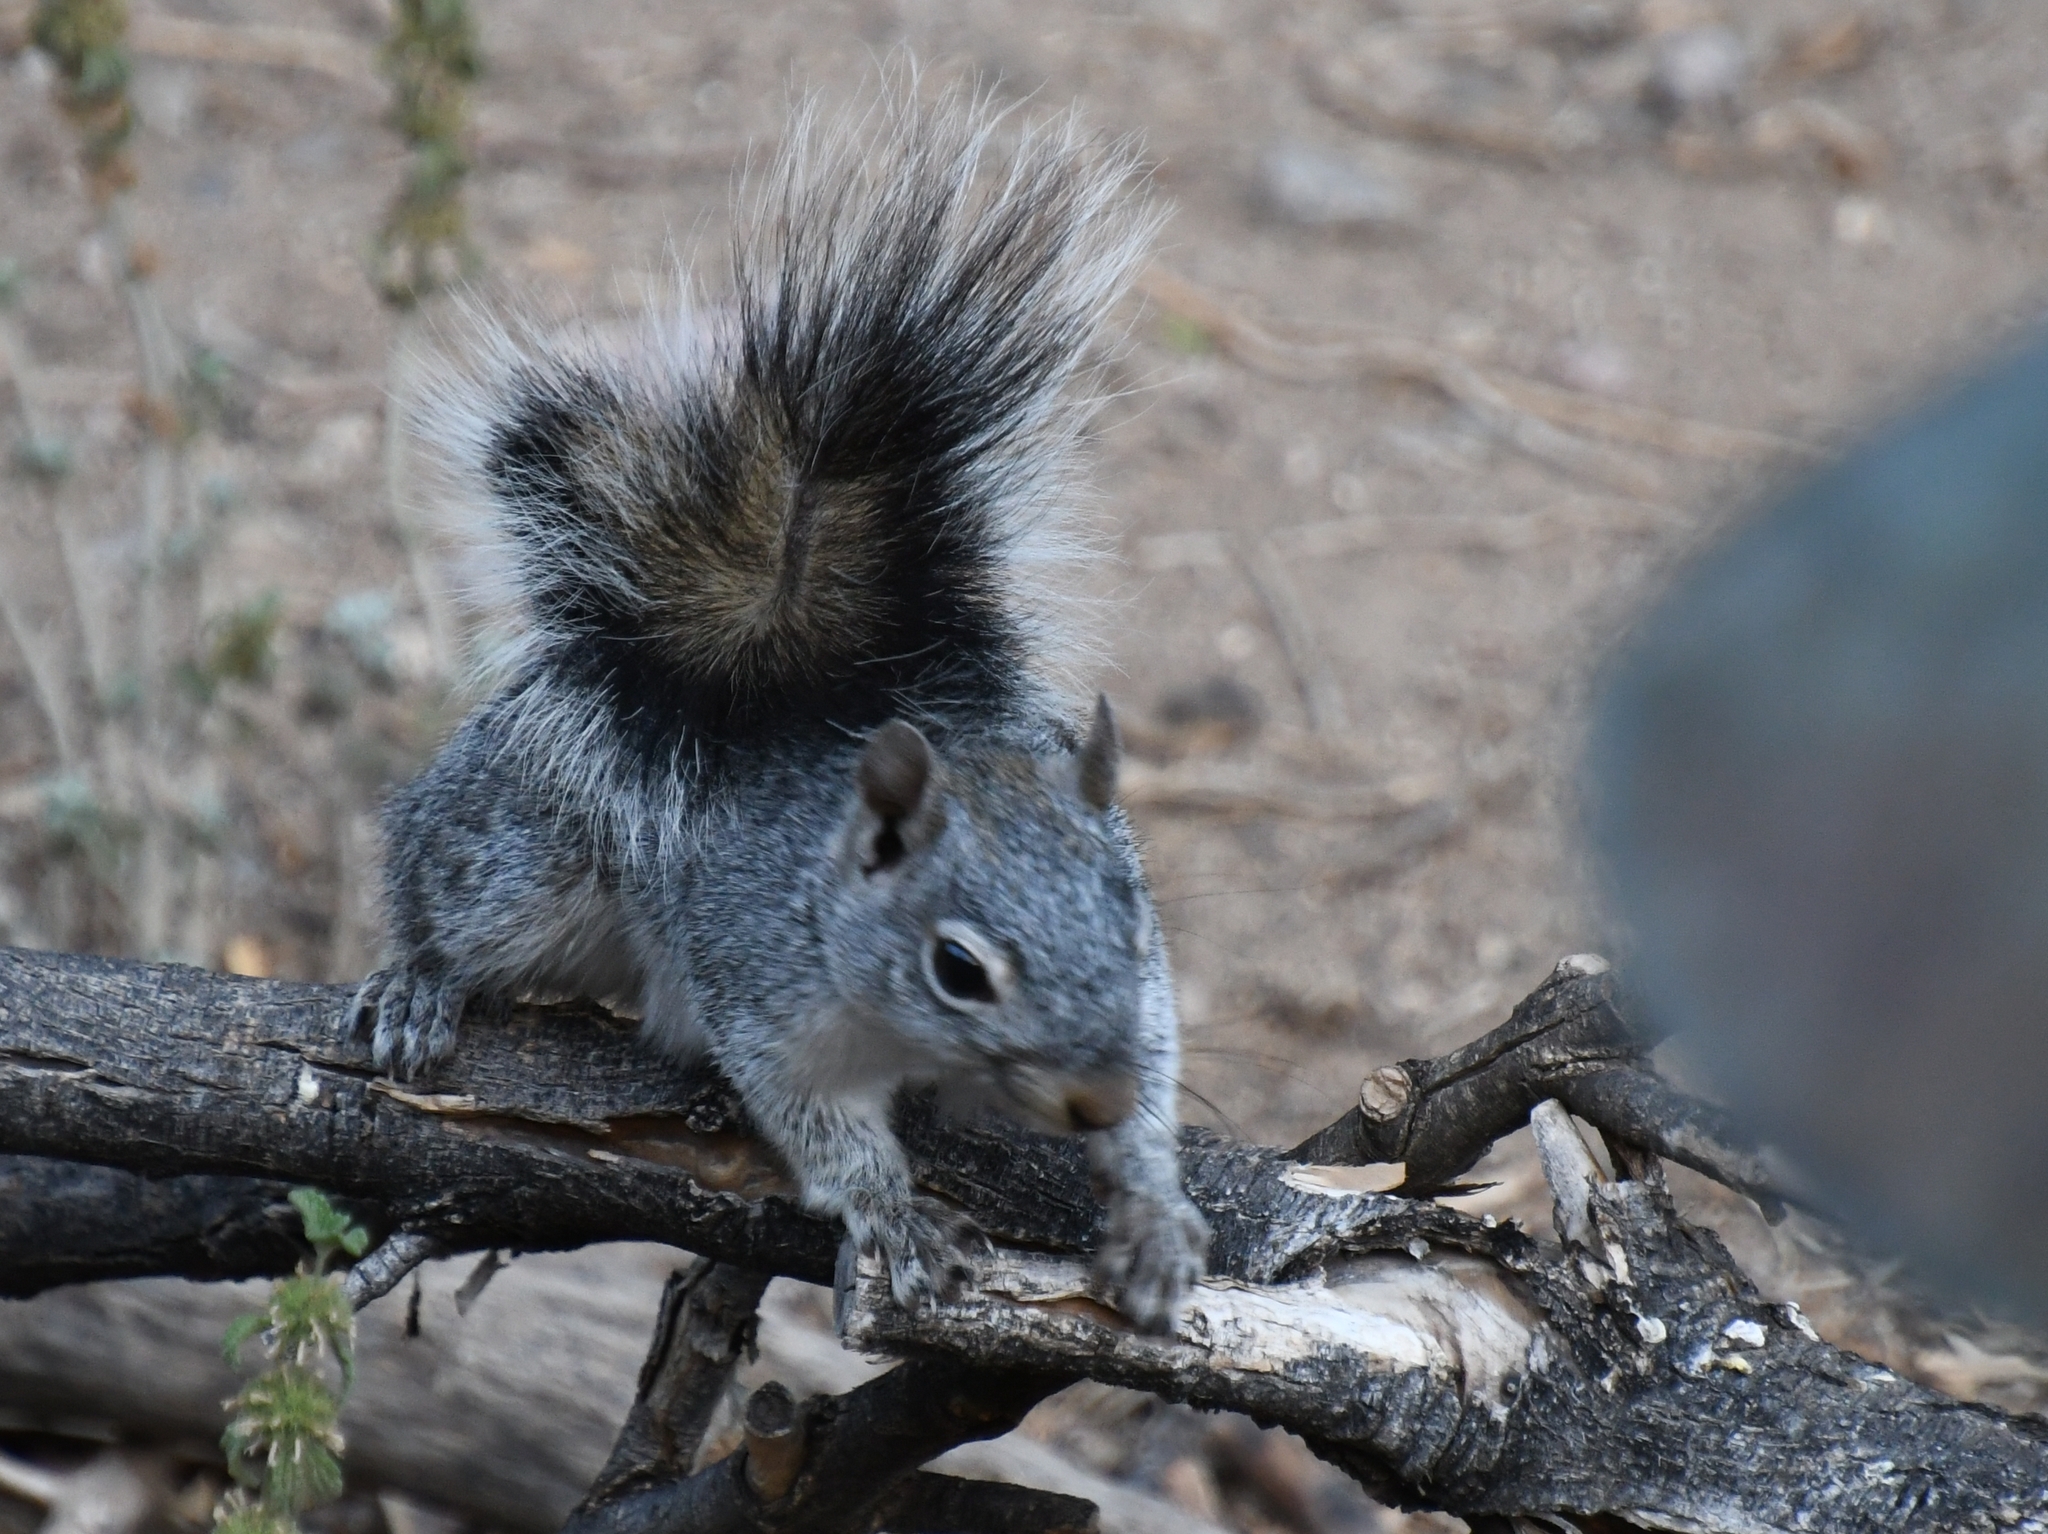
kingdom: Animalia
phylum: Chordata
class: Mammalia
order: Rodentia
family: Sciuridae
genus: Sciurus
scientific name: Sciurus arizonensis
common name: Arizona gray squirrel
